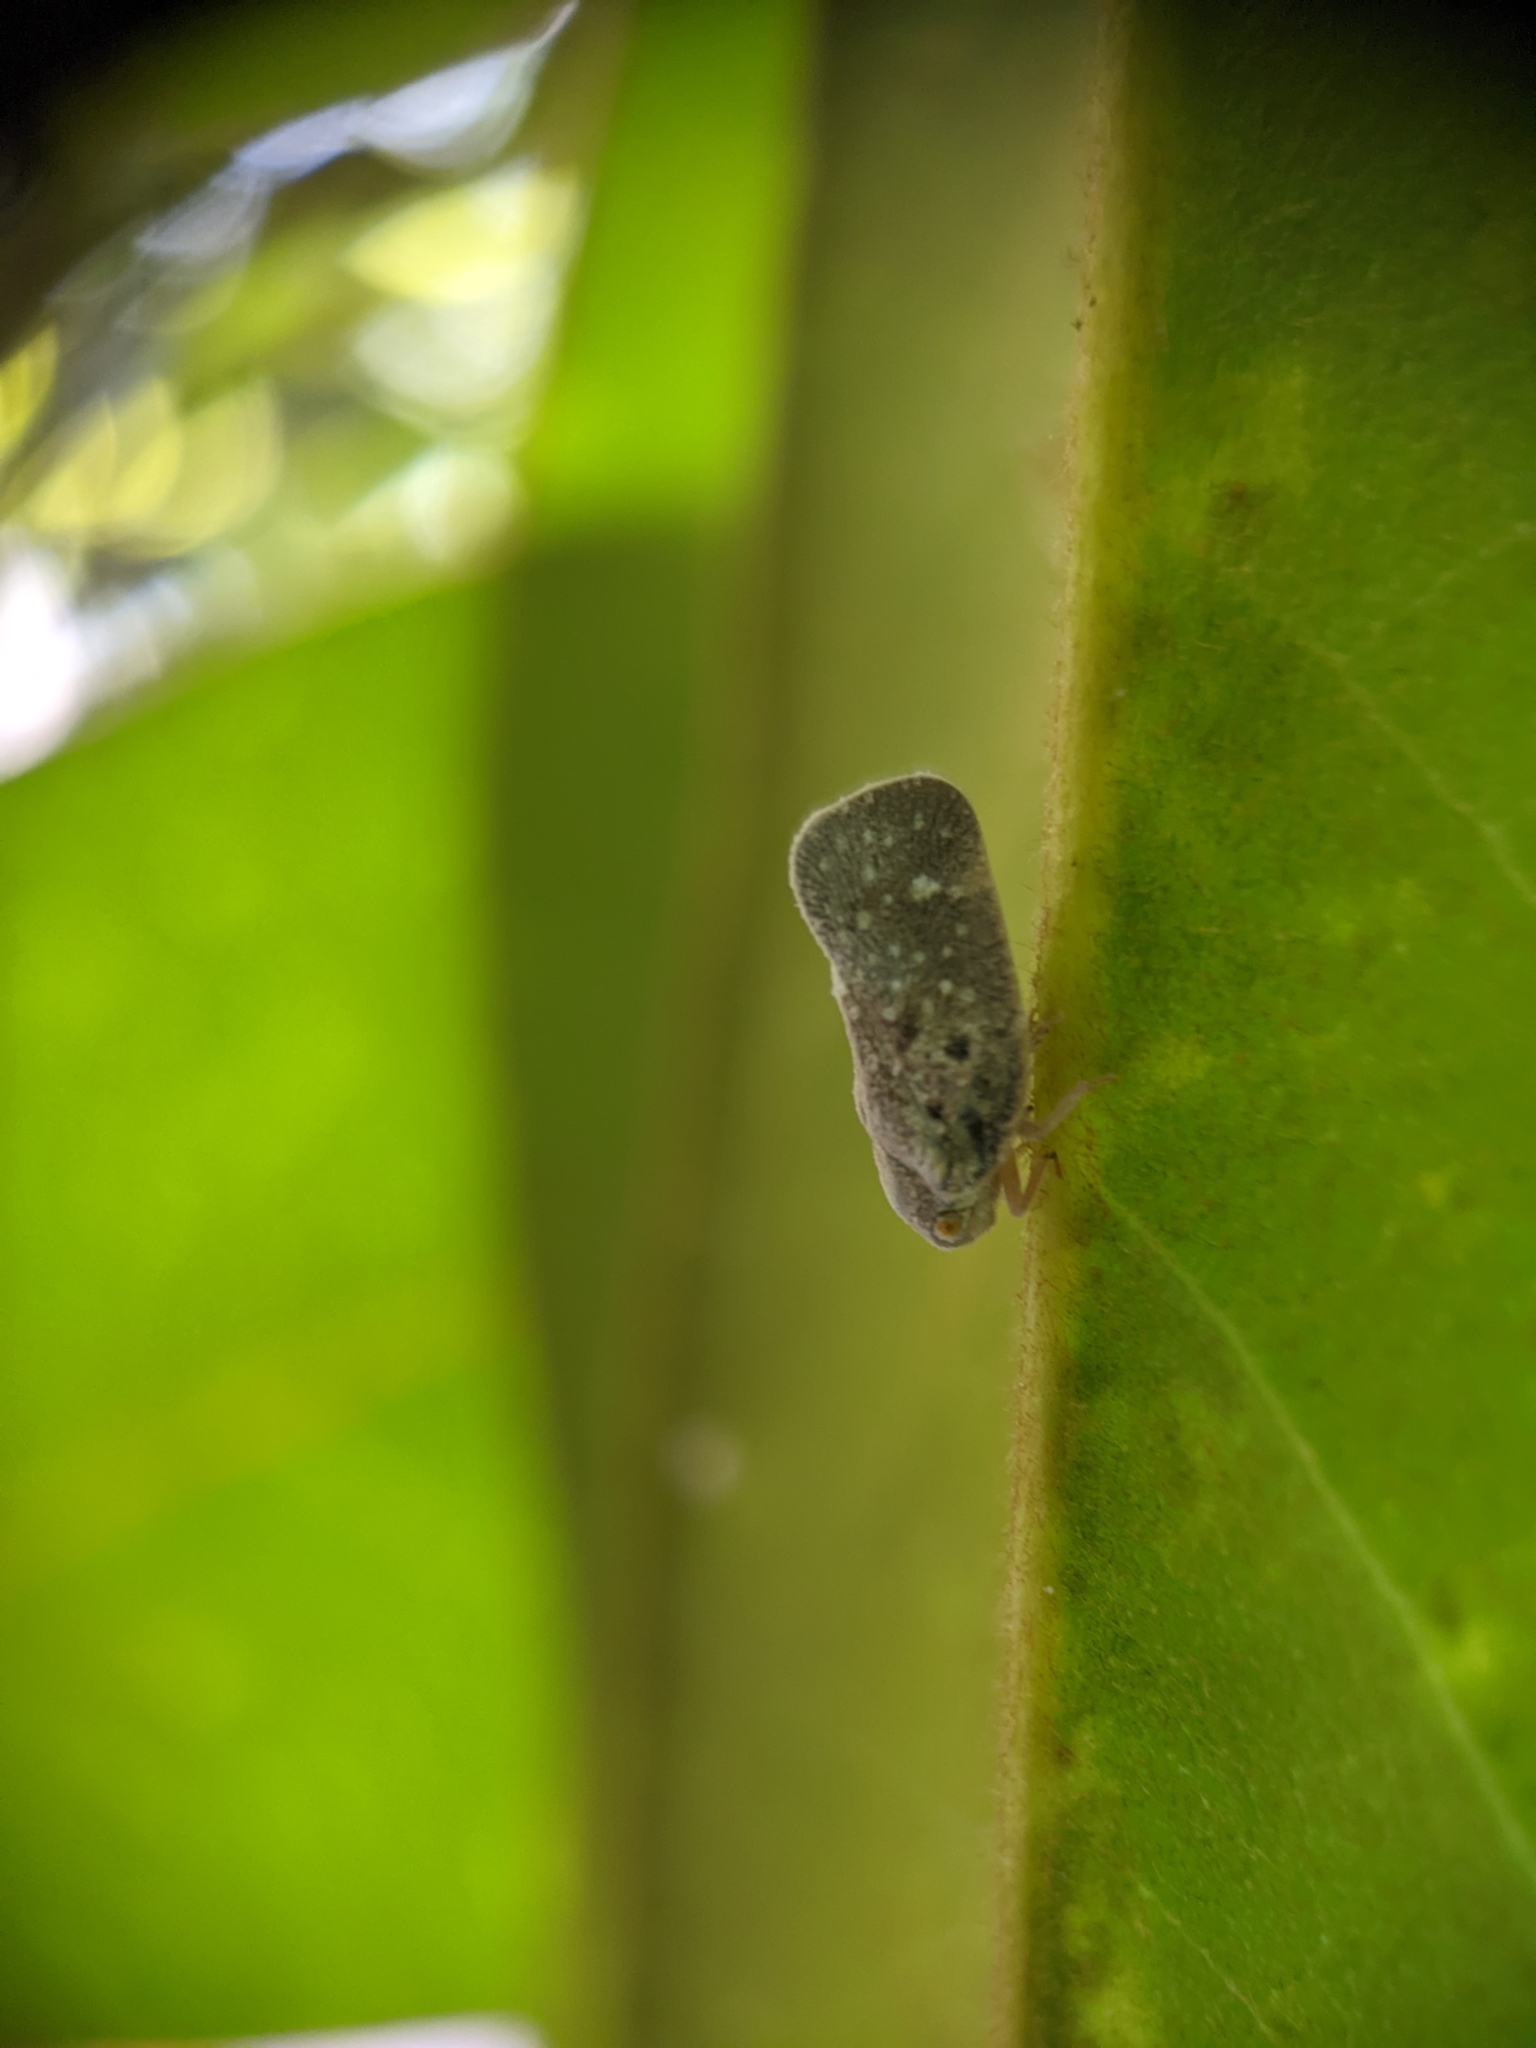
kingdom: Animalia
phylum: Arthropoda
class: Insecta
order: Hemiptera
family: Flatidae
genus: Metcalfa
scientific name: Metcalfa pruinosa
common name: Citrus flatid planthopper
